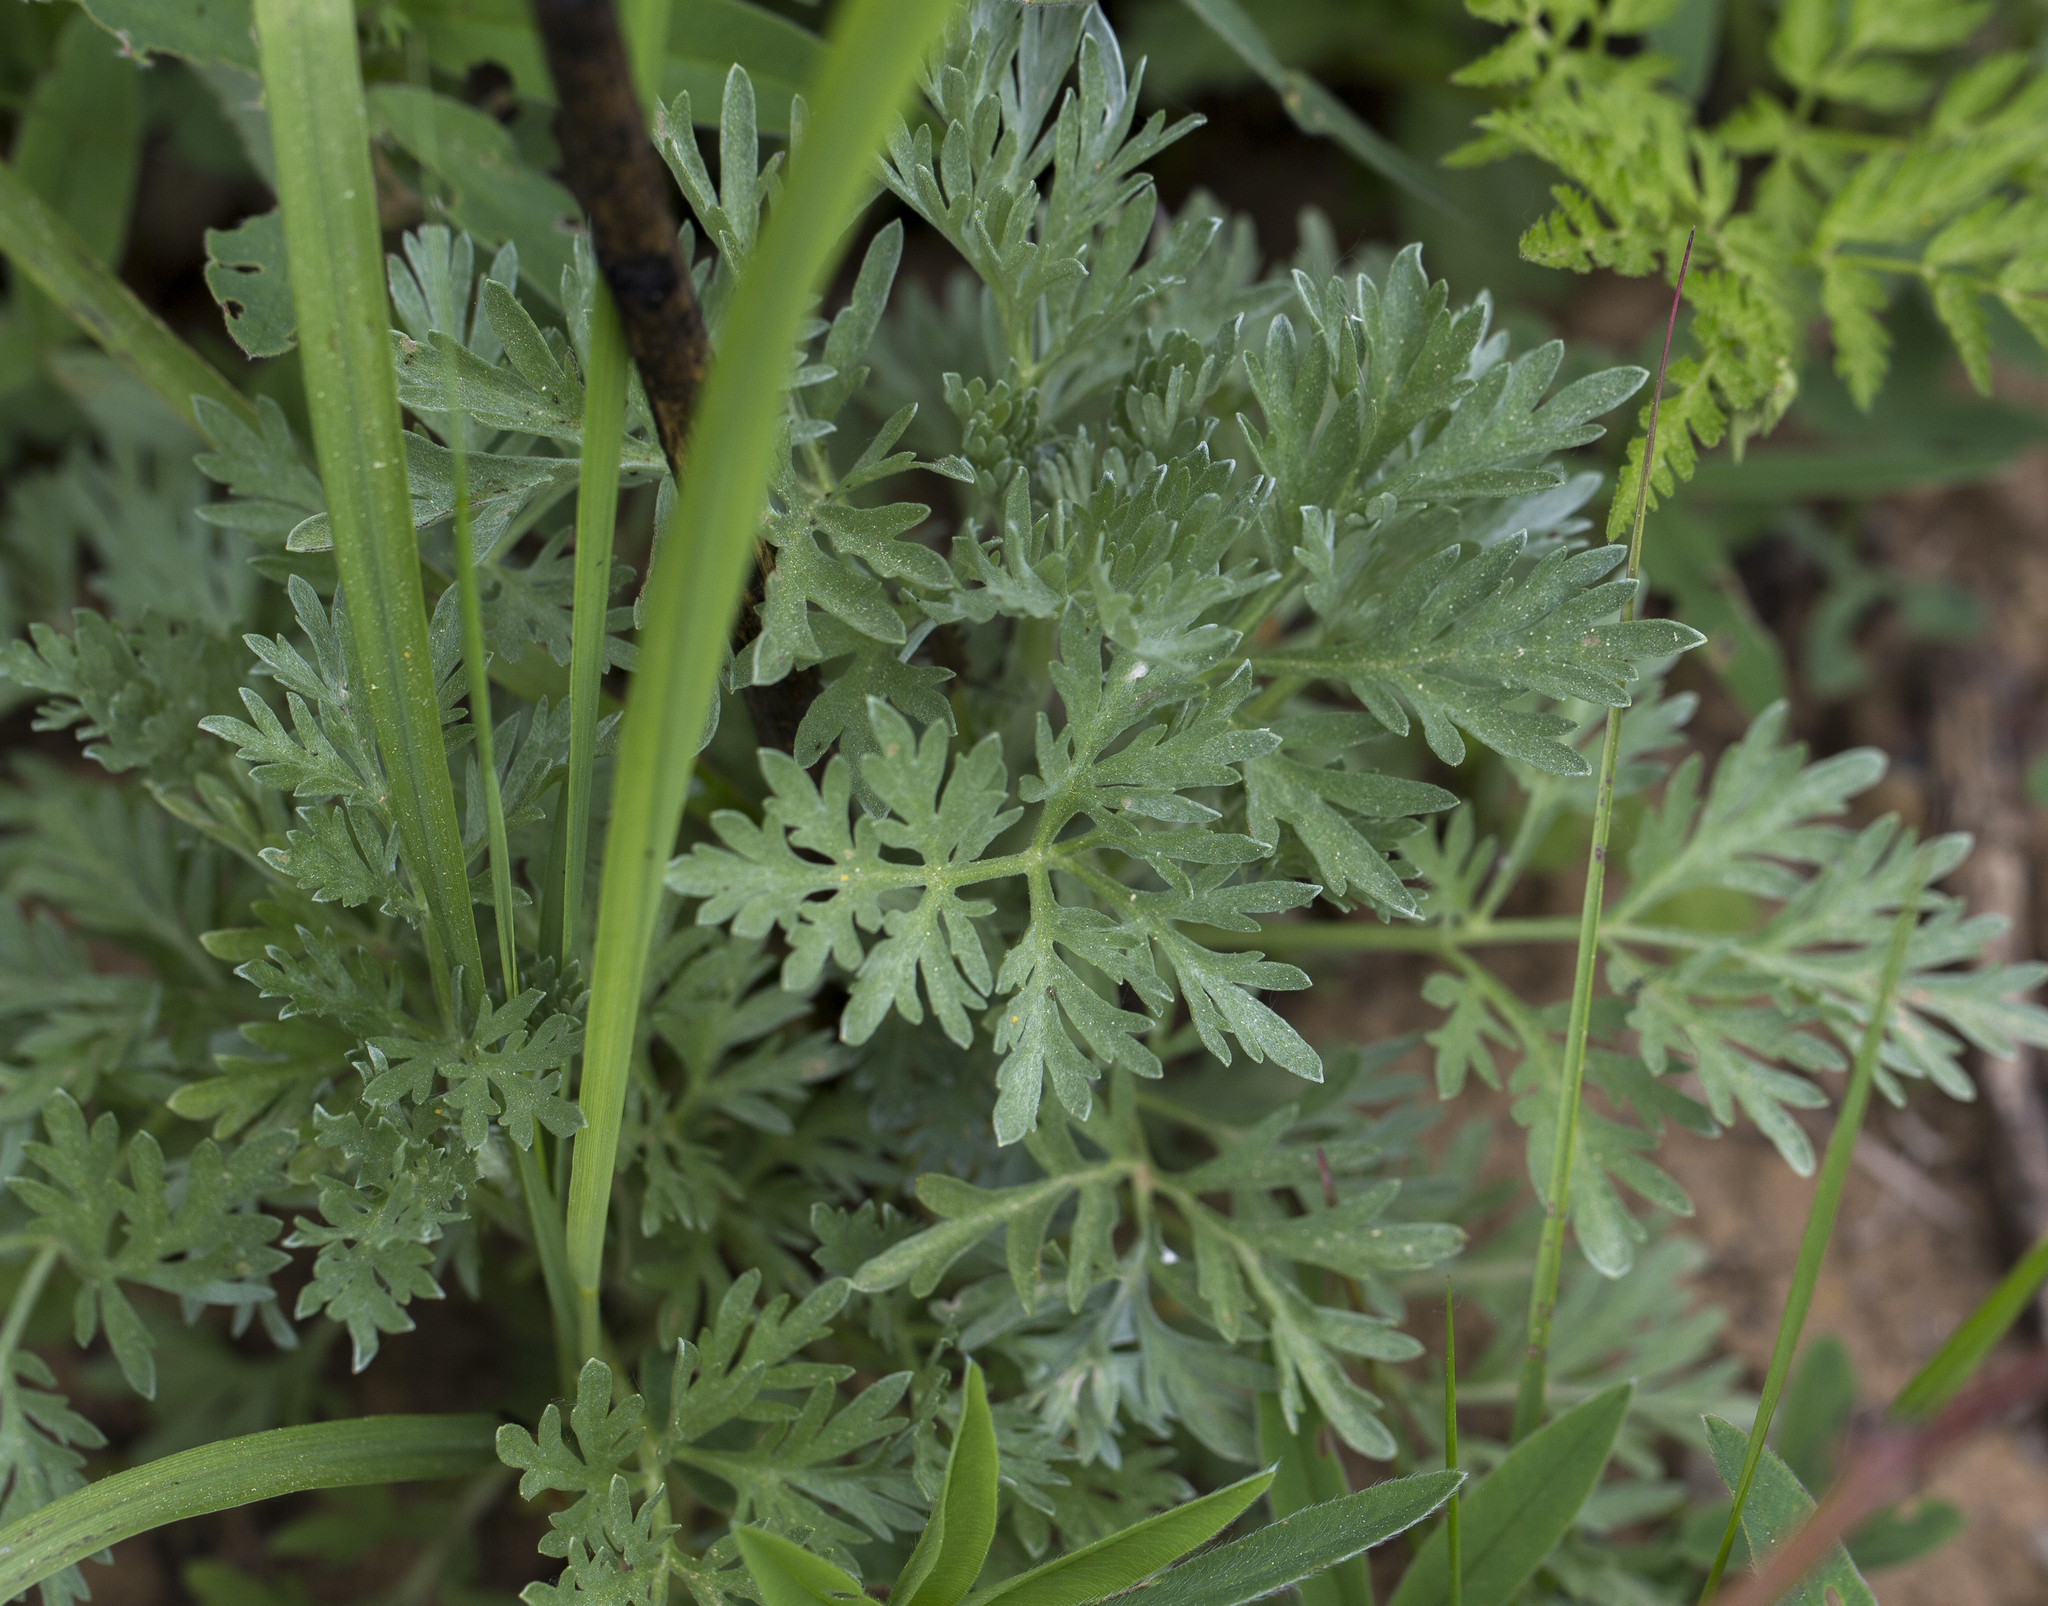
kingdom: Plantae
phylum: Tracheophyta
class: Magnoliopsida
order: Asterales
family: Asteraceae
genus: Artemisia
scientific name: Artemisia absinthium
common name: Wormwood
